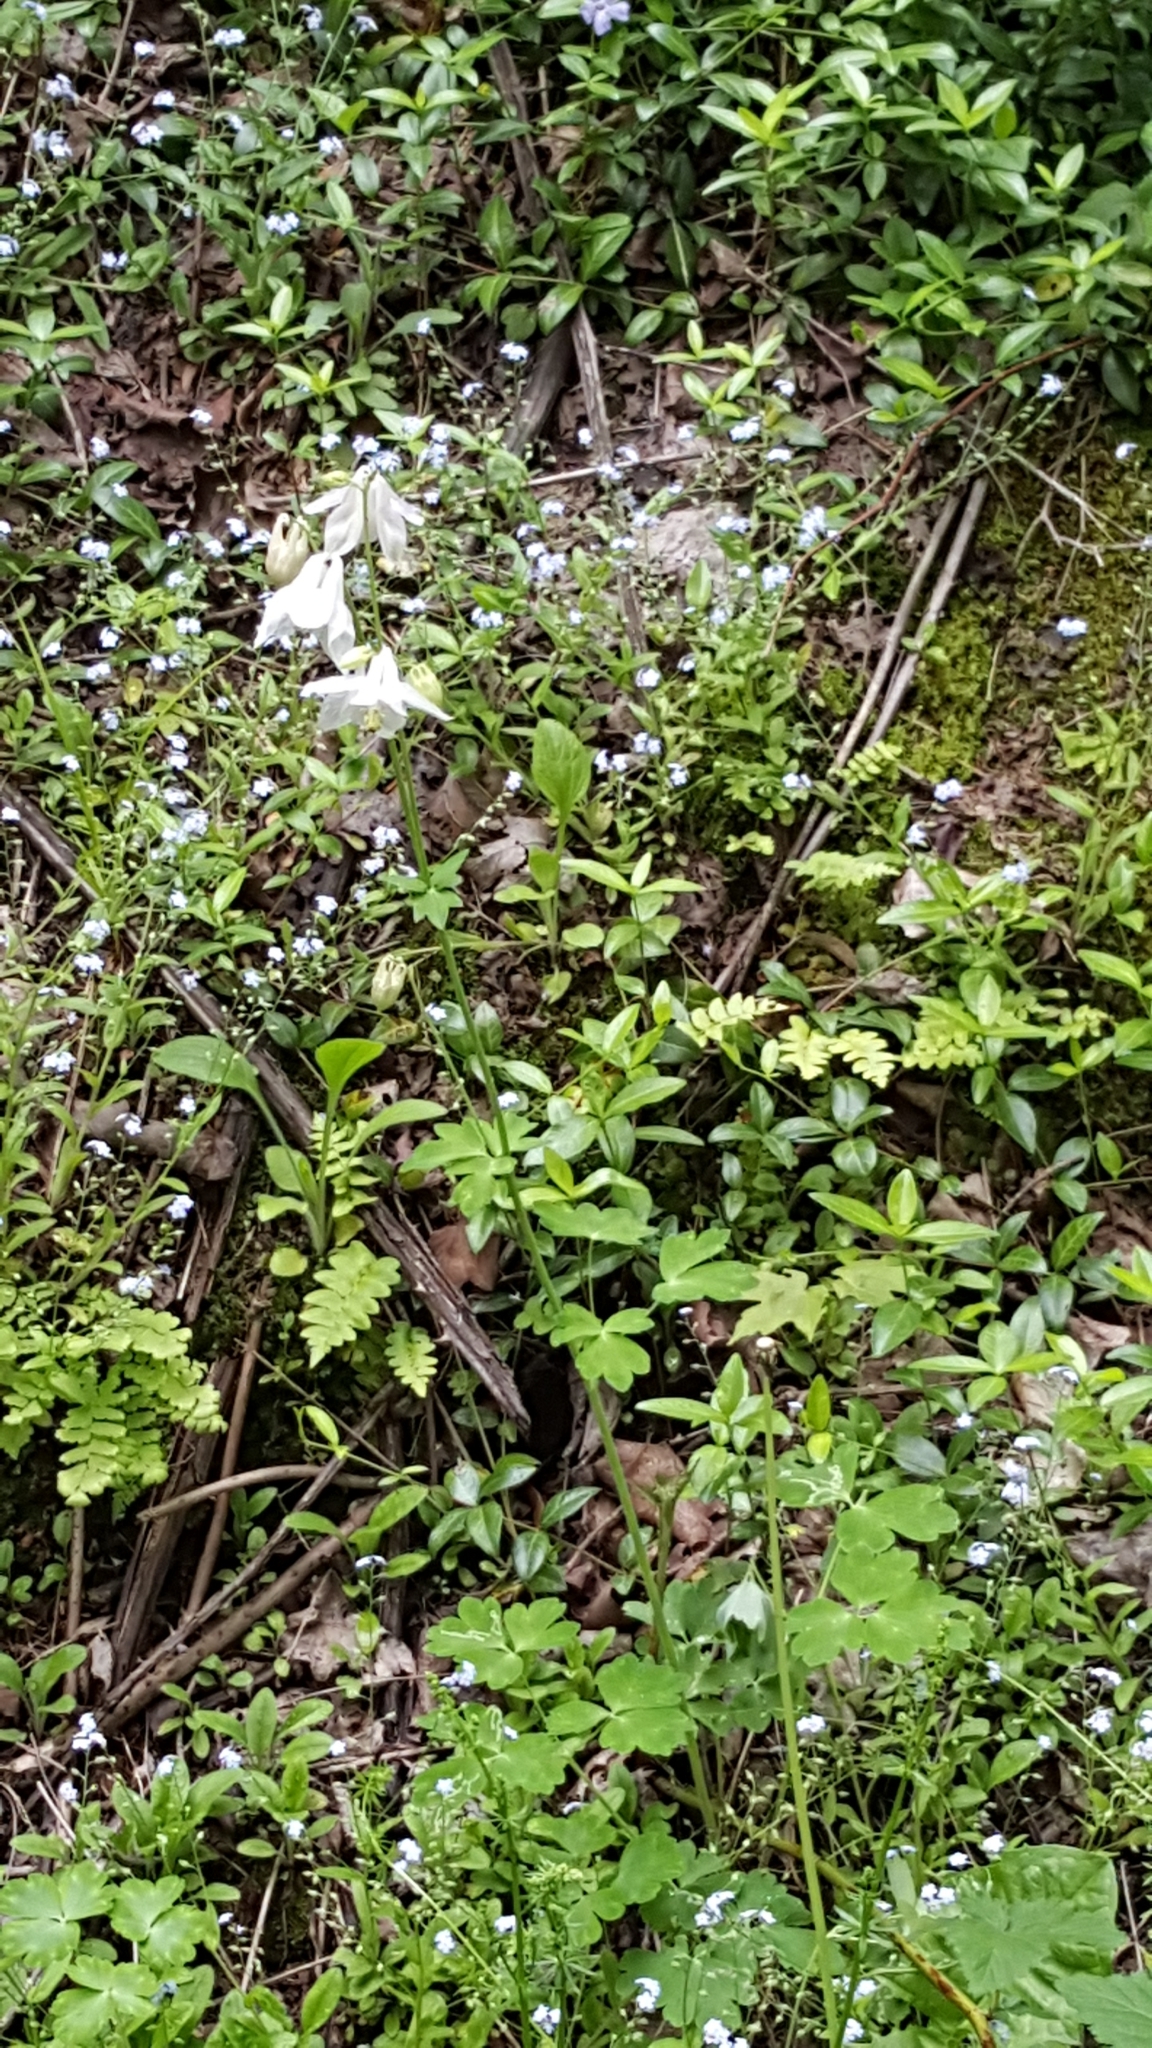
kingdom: Plantae
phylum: Tracheophyta
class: Magnoliopsida
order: Ranunculales
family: Ranunculaceae
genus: Aquilegia
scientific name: Aquilegia vulgaris
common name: Columbine
